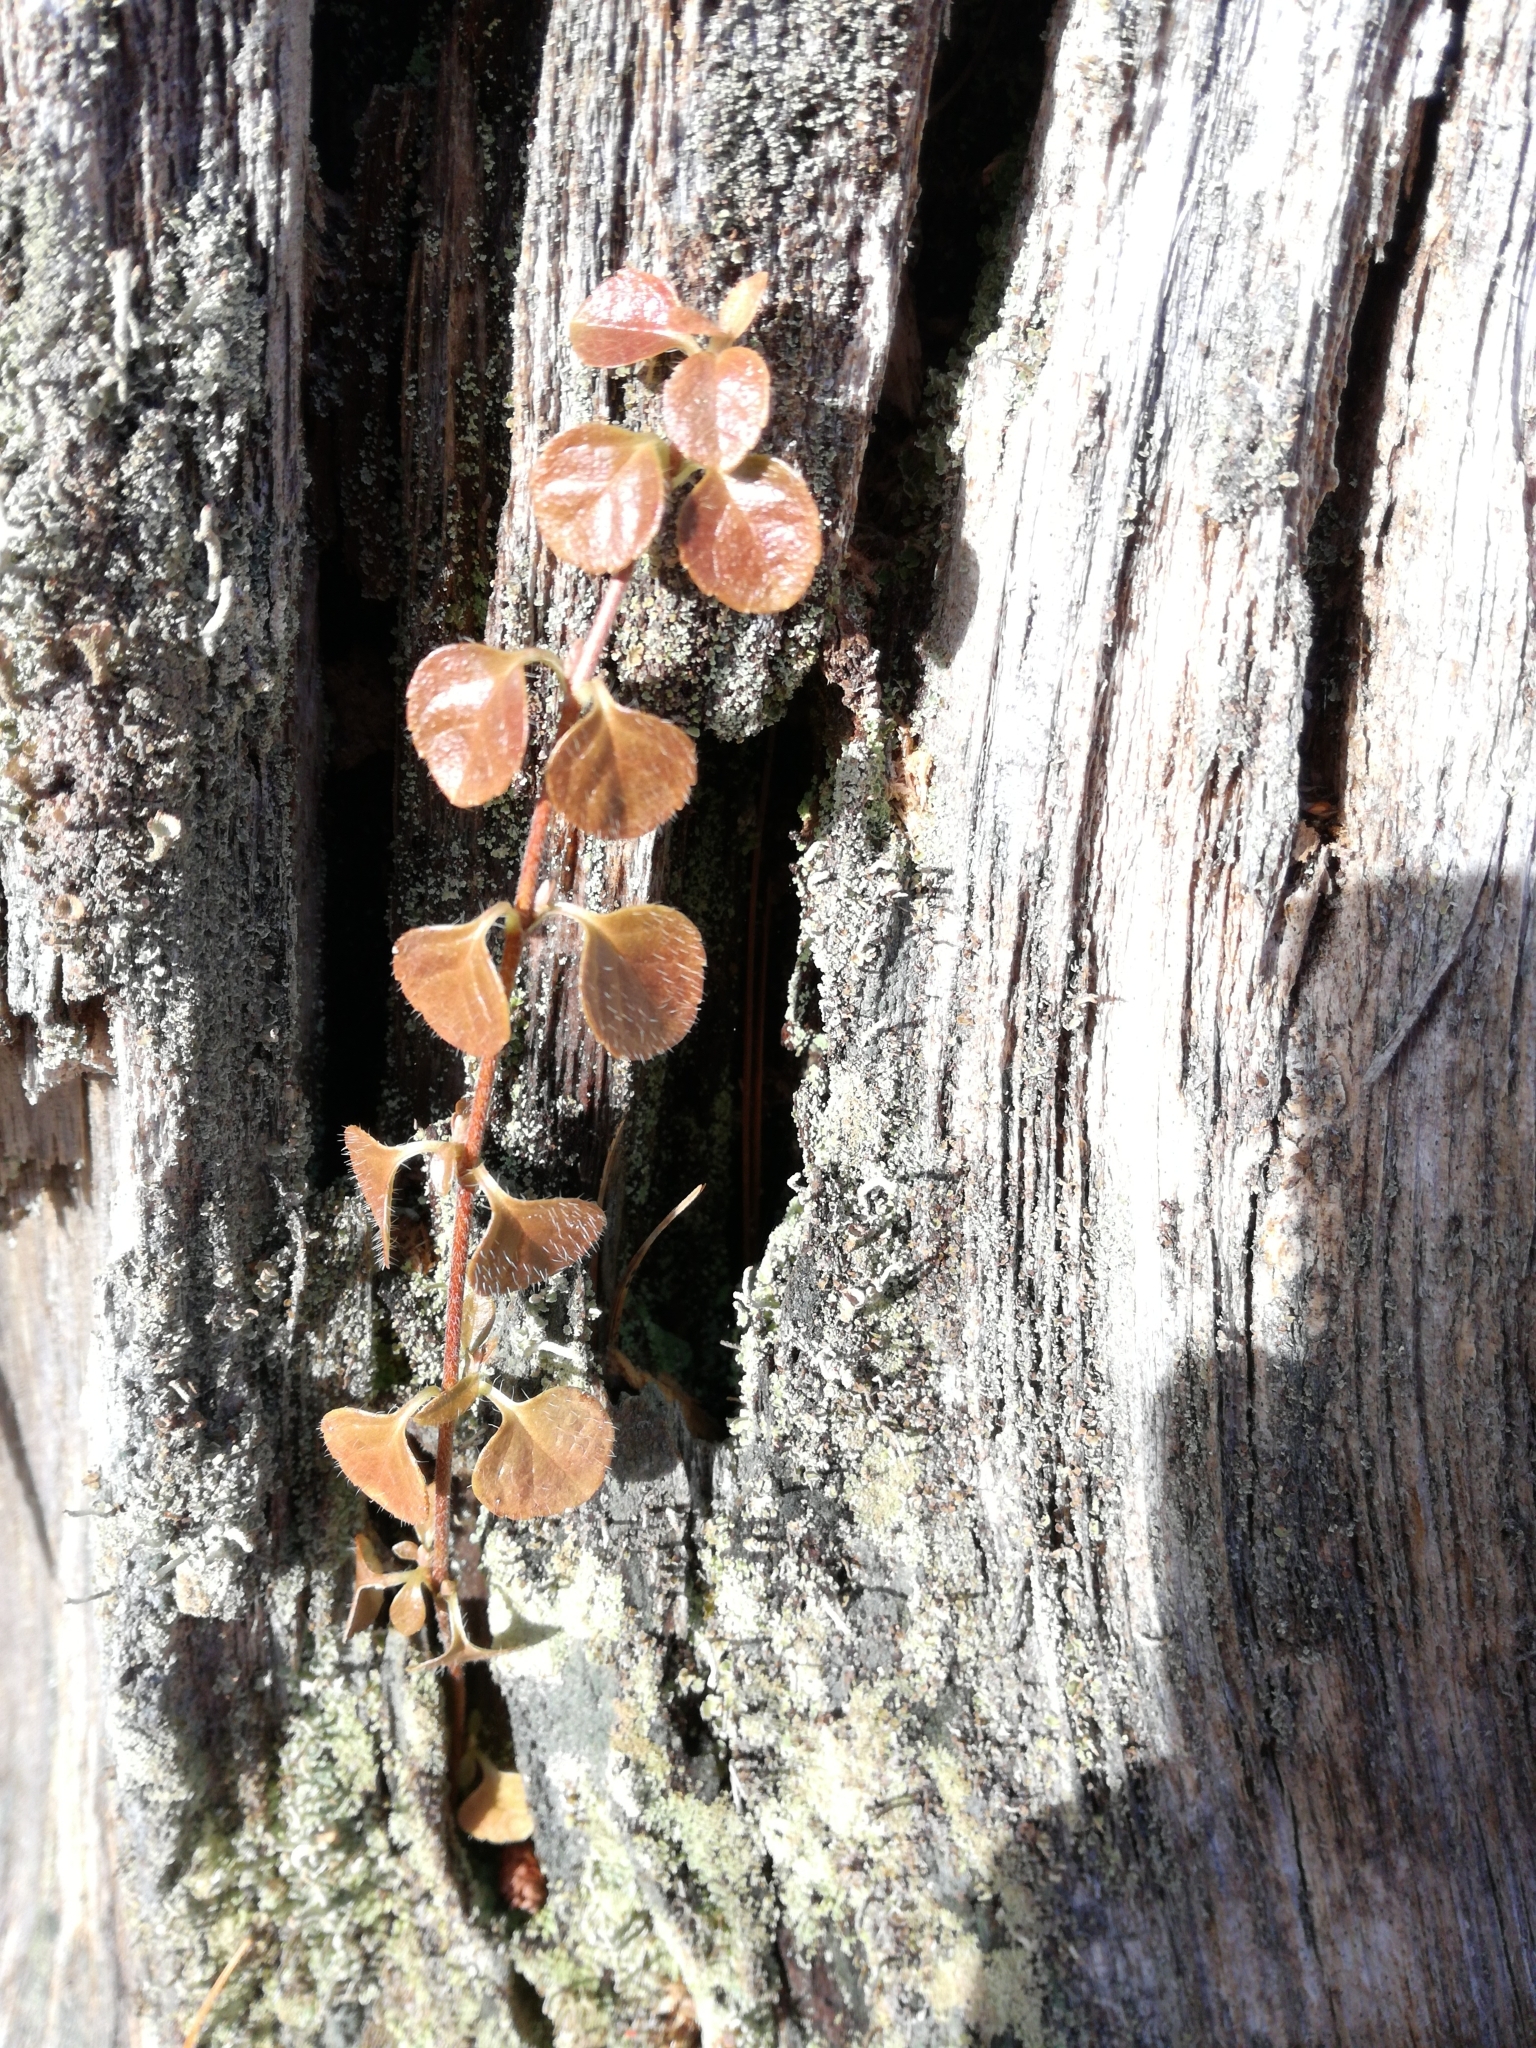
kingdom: Plantae
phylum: Tracheophyta
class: Magnoliopsida
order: Dipsacales
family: Caprifoliaceae
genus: Linnaea
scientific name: Linnaea borealis
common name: Twinflower
